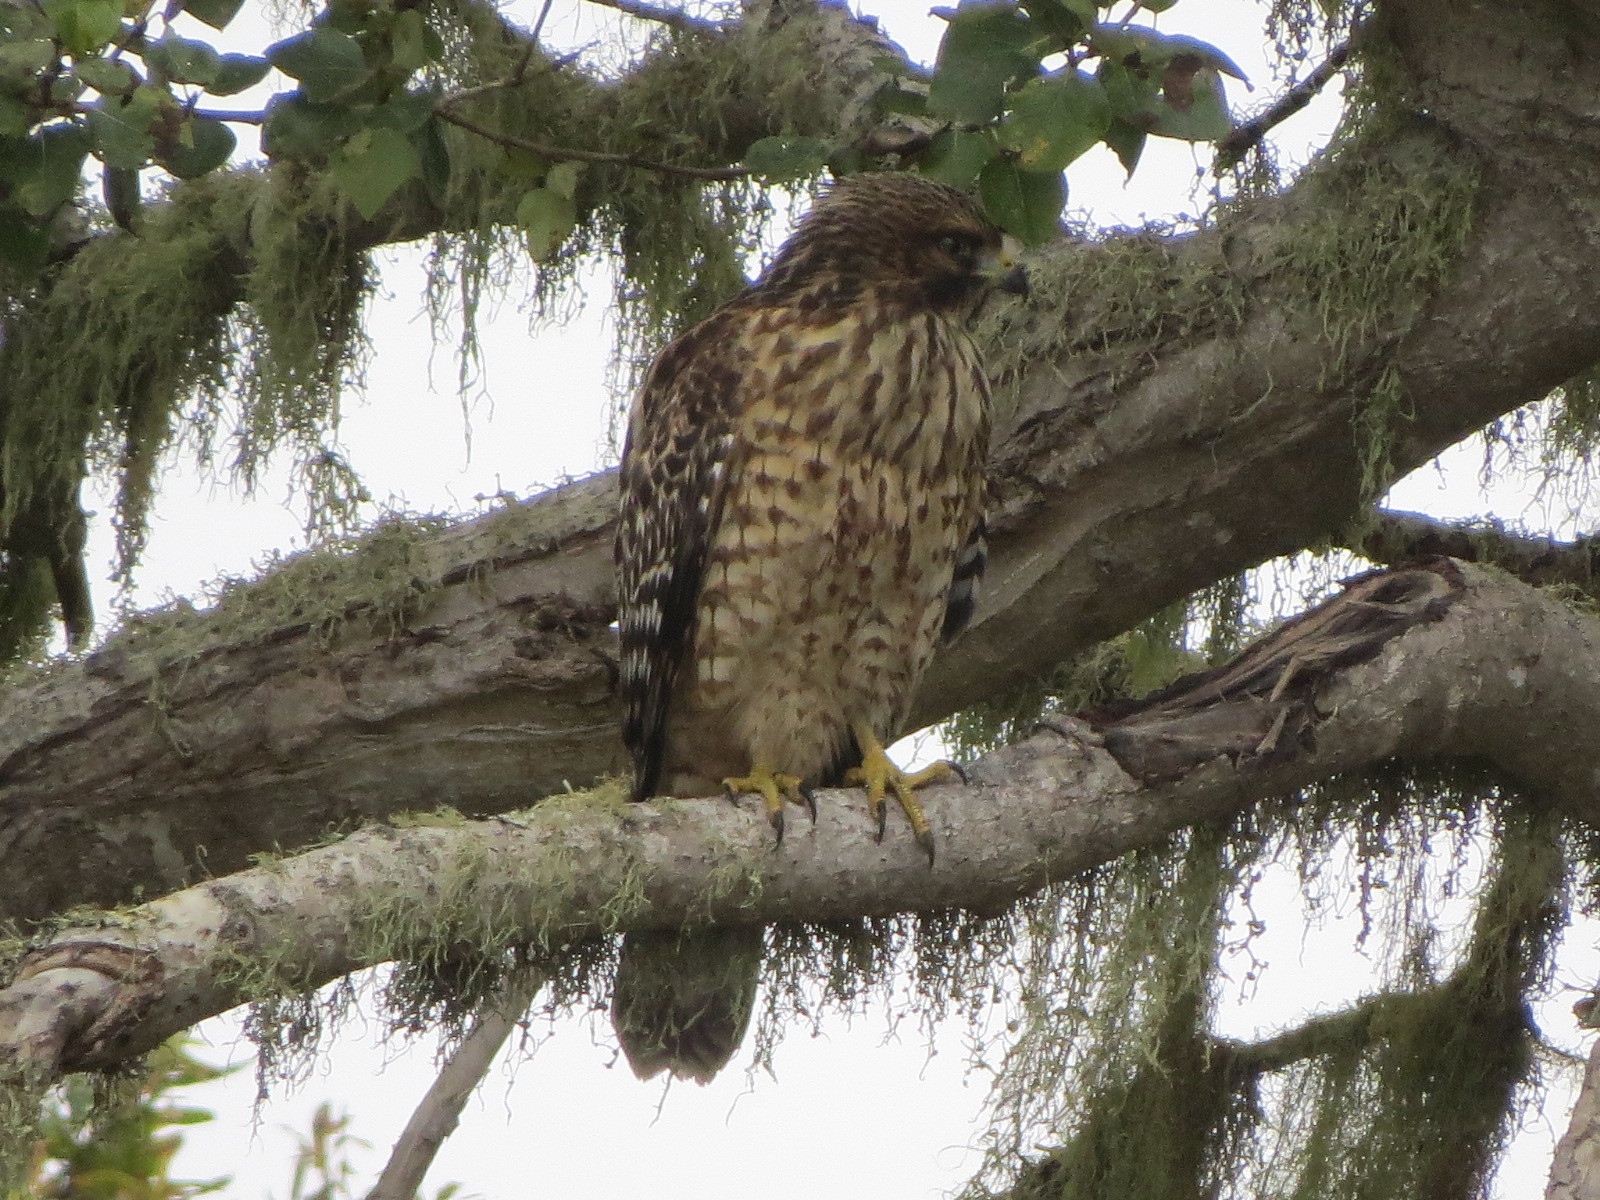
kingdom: Animalia
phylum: Chordata
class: Aves
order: Accipitriformes
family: Accipitridae
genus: Buteo
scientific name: Buteo lineatus
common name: Red-shouldered hawk
